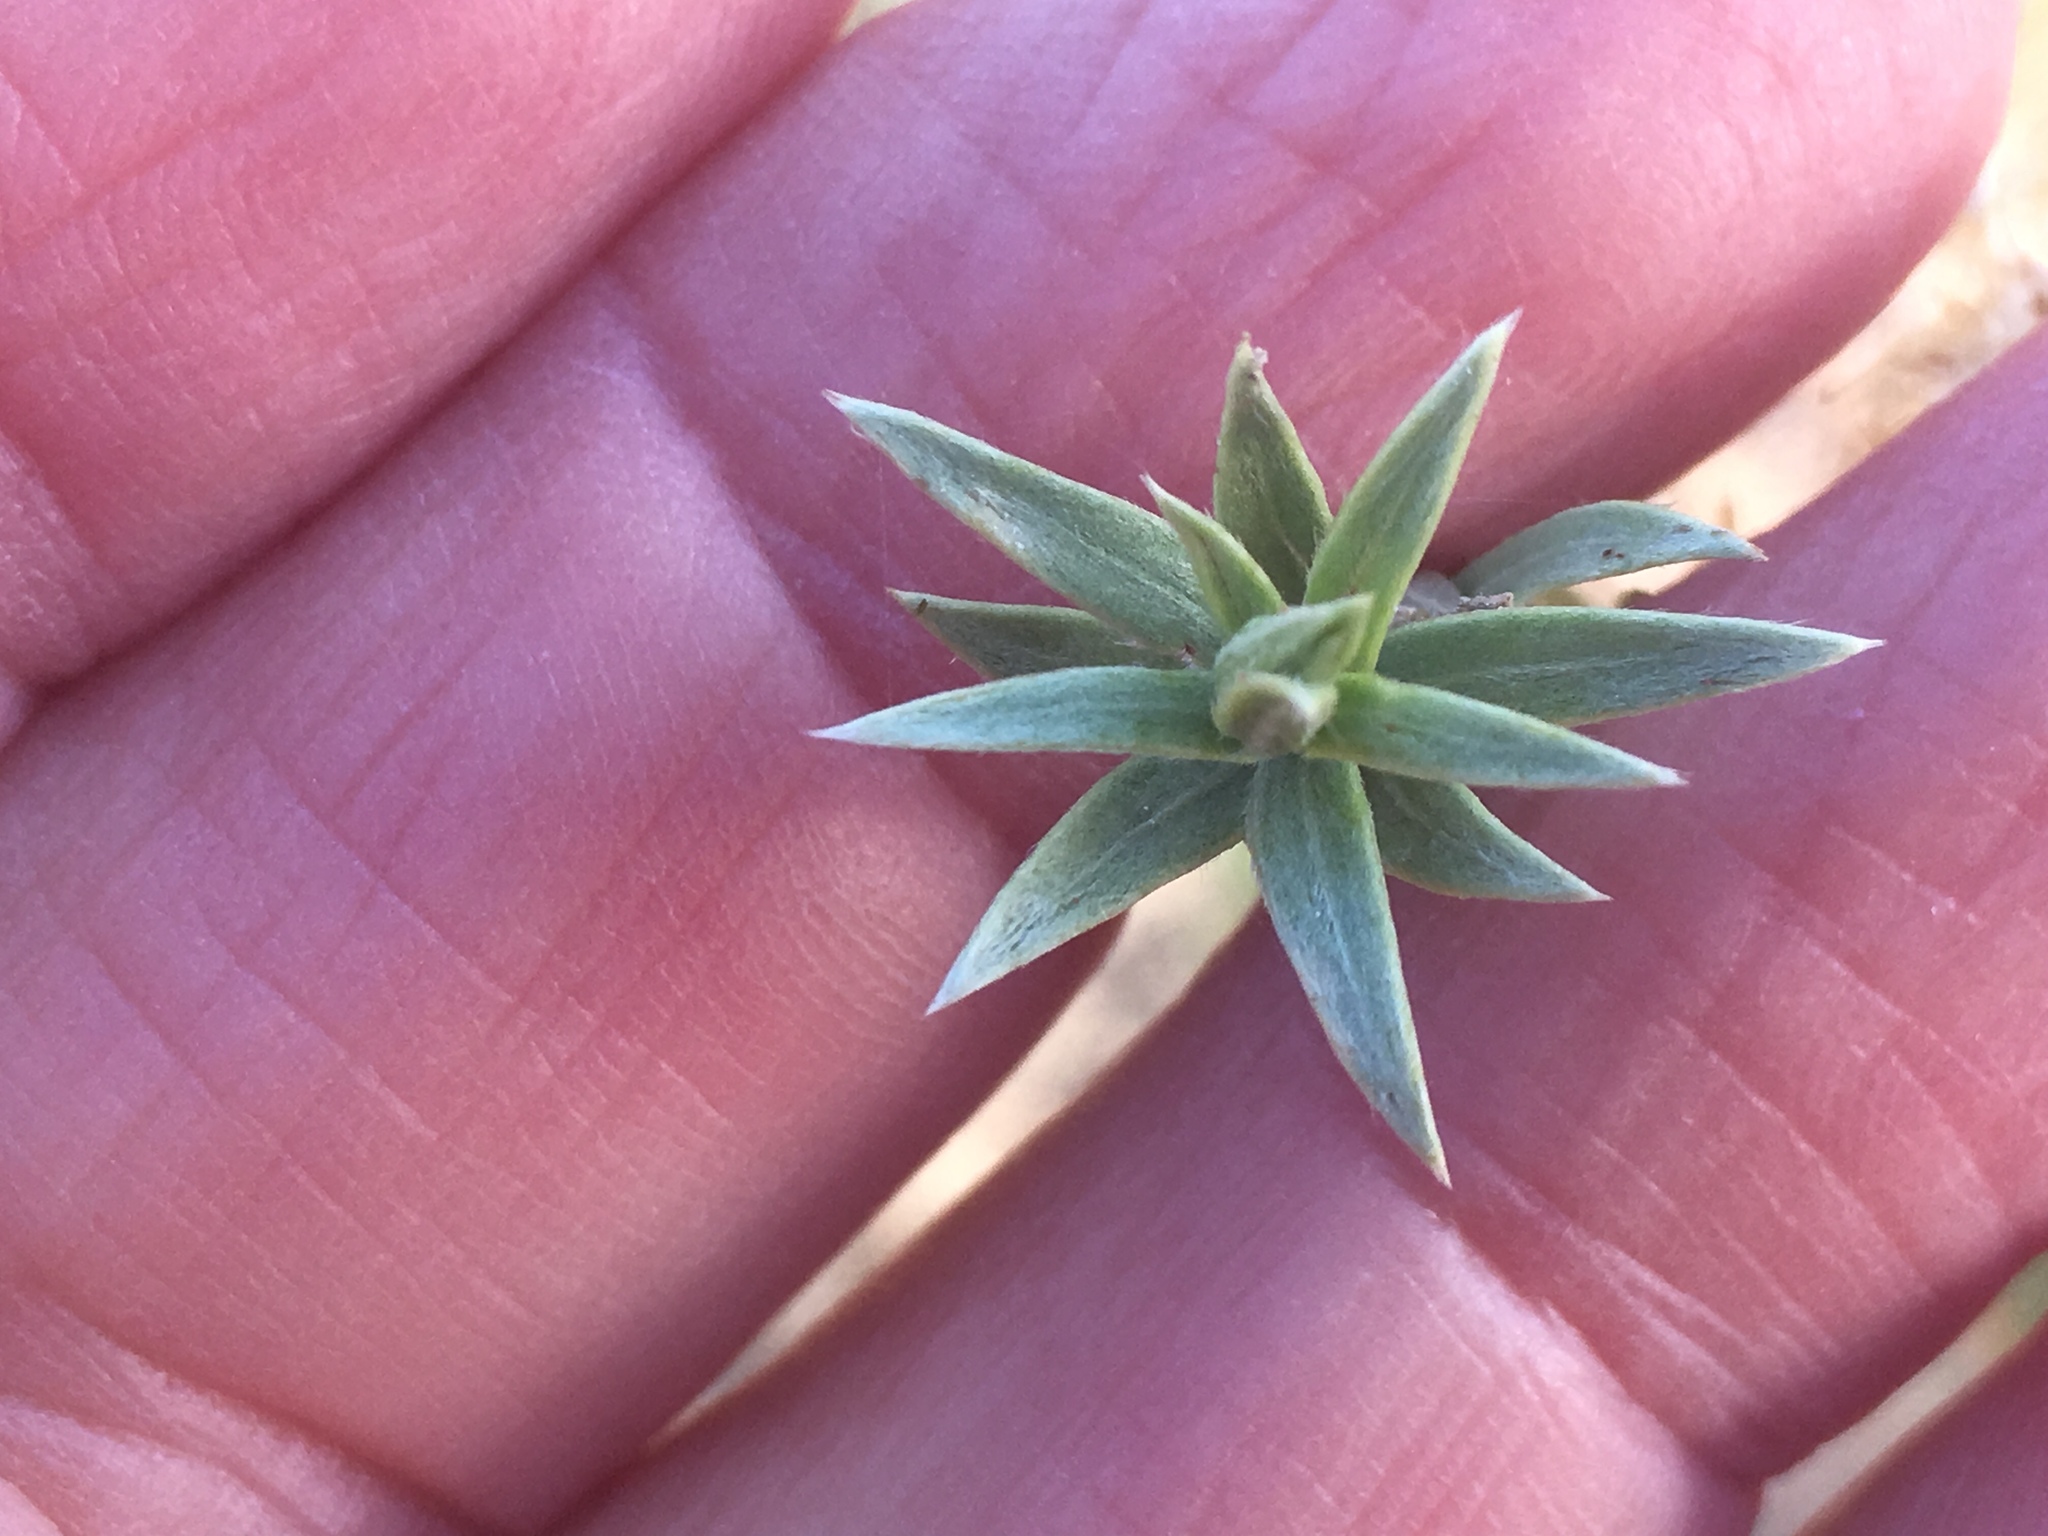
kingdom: Plantae
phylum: Tracheophyta
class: Magnoliopsida
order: Asterales
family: Asteraceae
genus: Pluchea
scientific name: Pluchea sericea
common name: Arrow-weed
